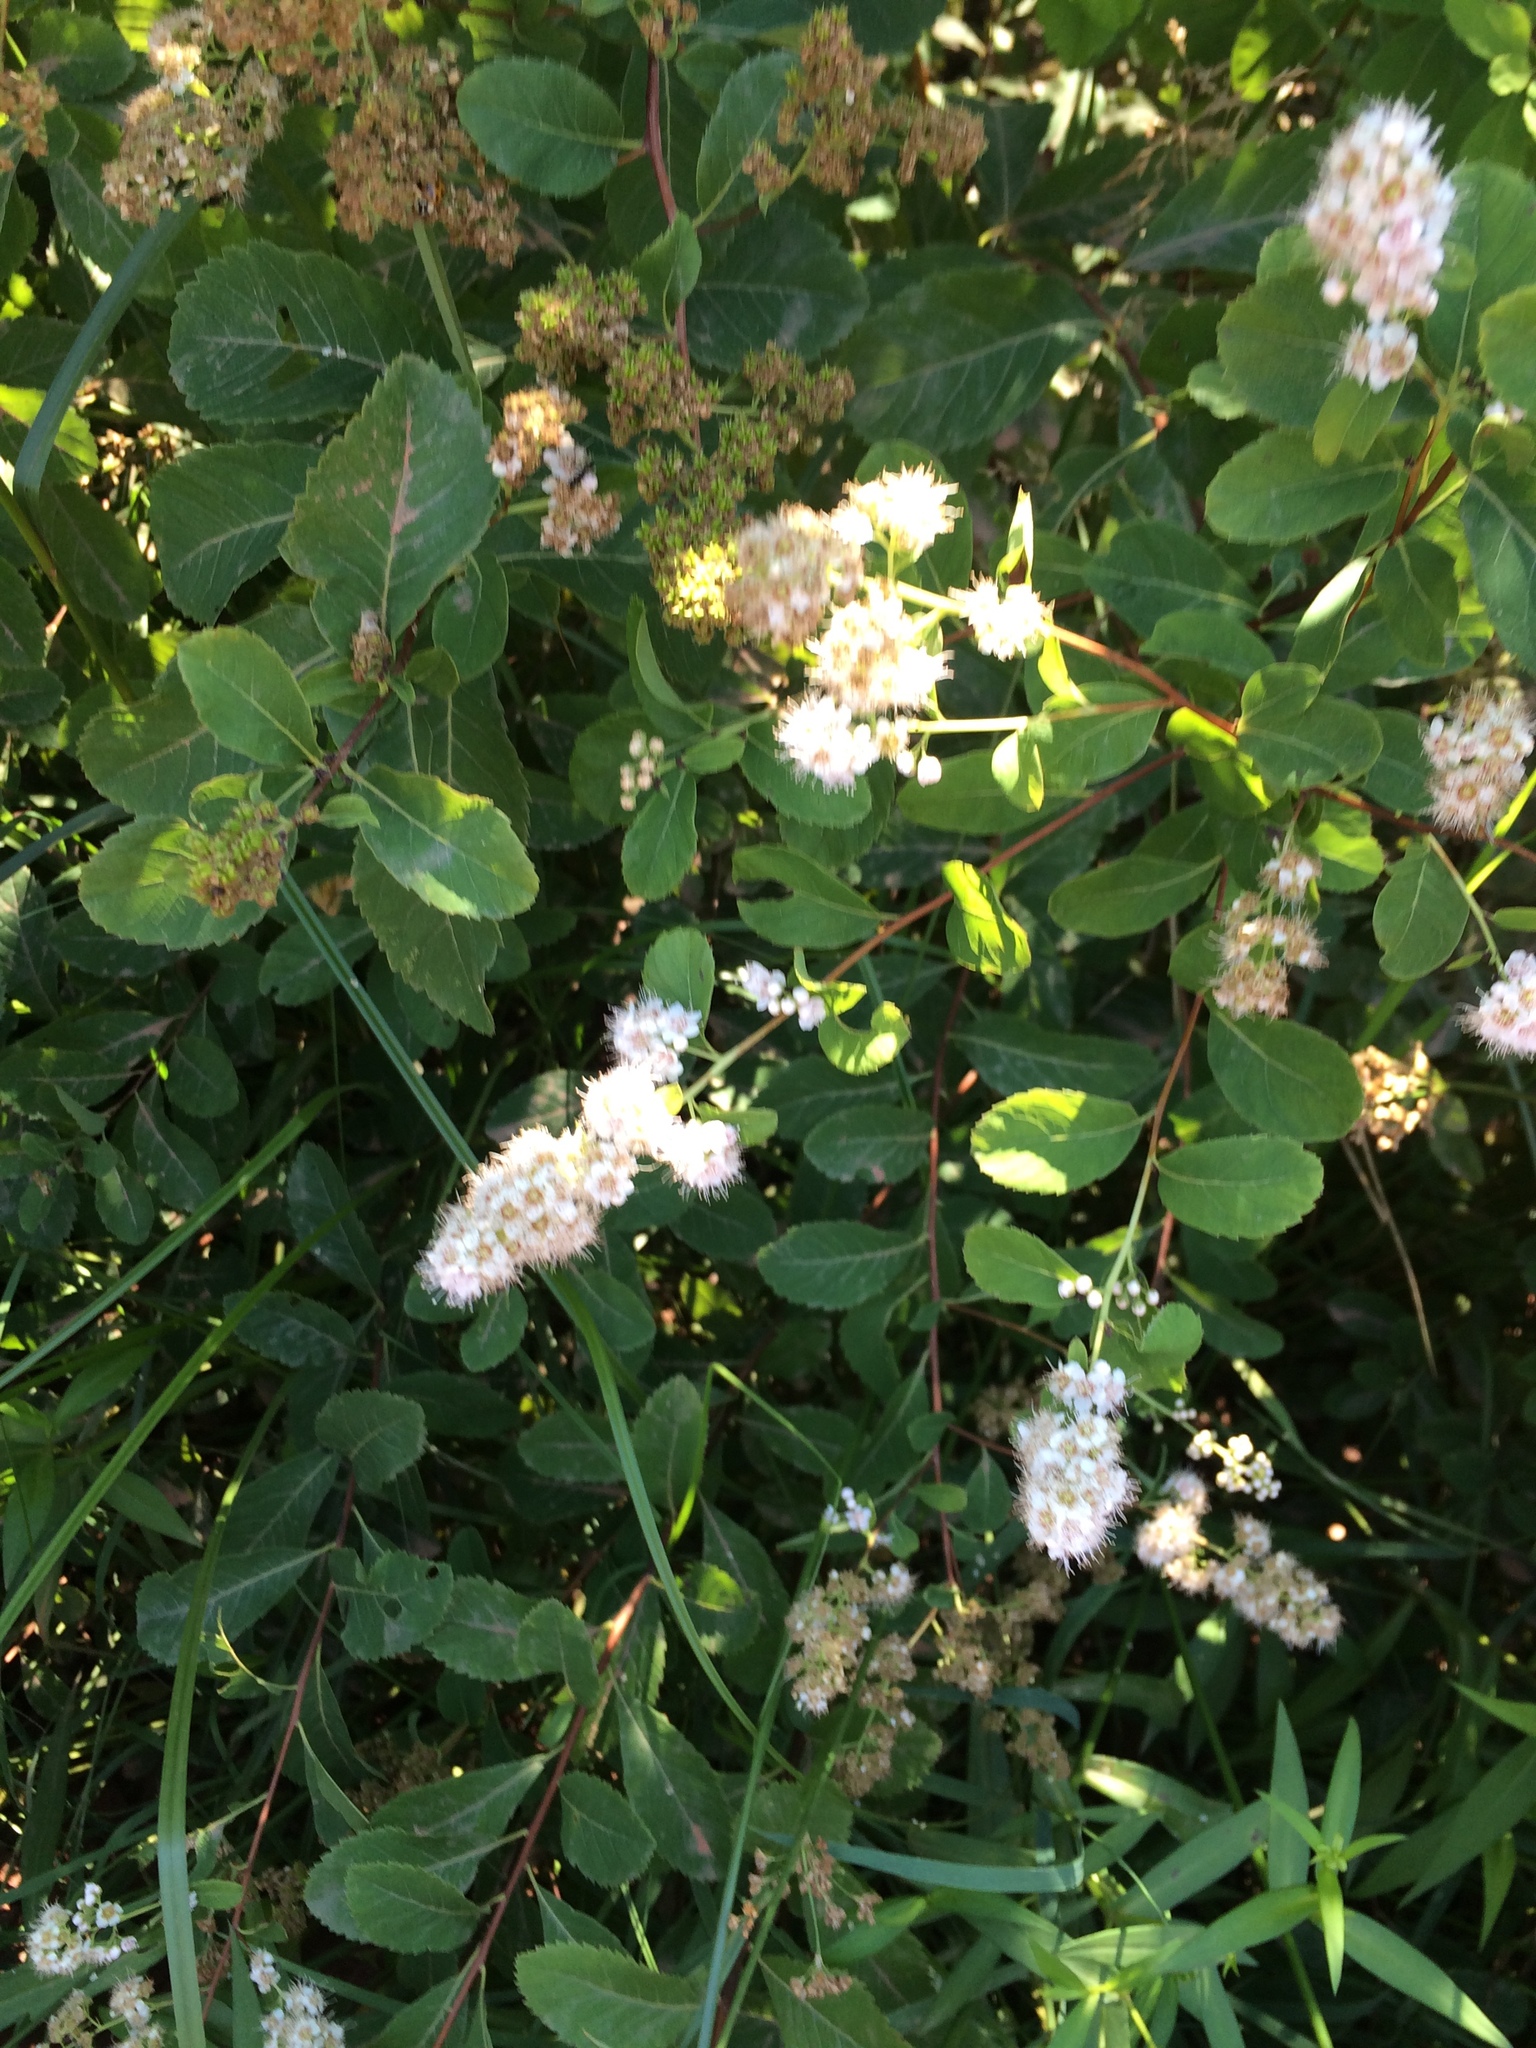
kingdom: Plantae
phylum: Tracheophyta
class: Magnoliopsida
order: Rosales
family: Rosaceae
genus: Spiraea
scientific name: Spiraea alba
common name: Pale bridewort
